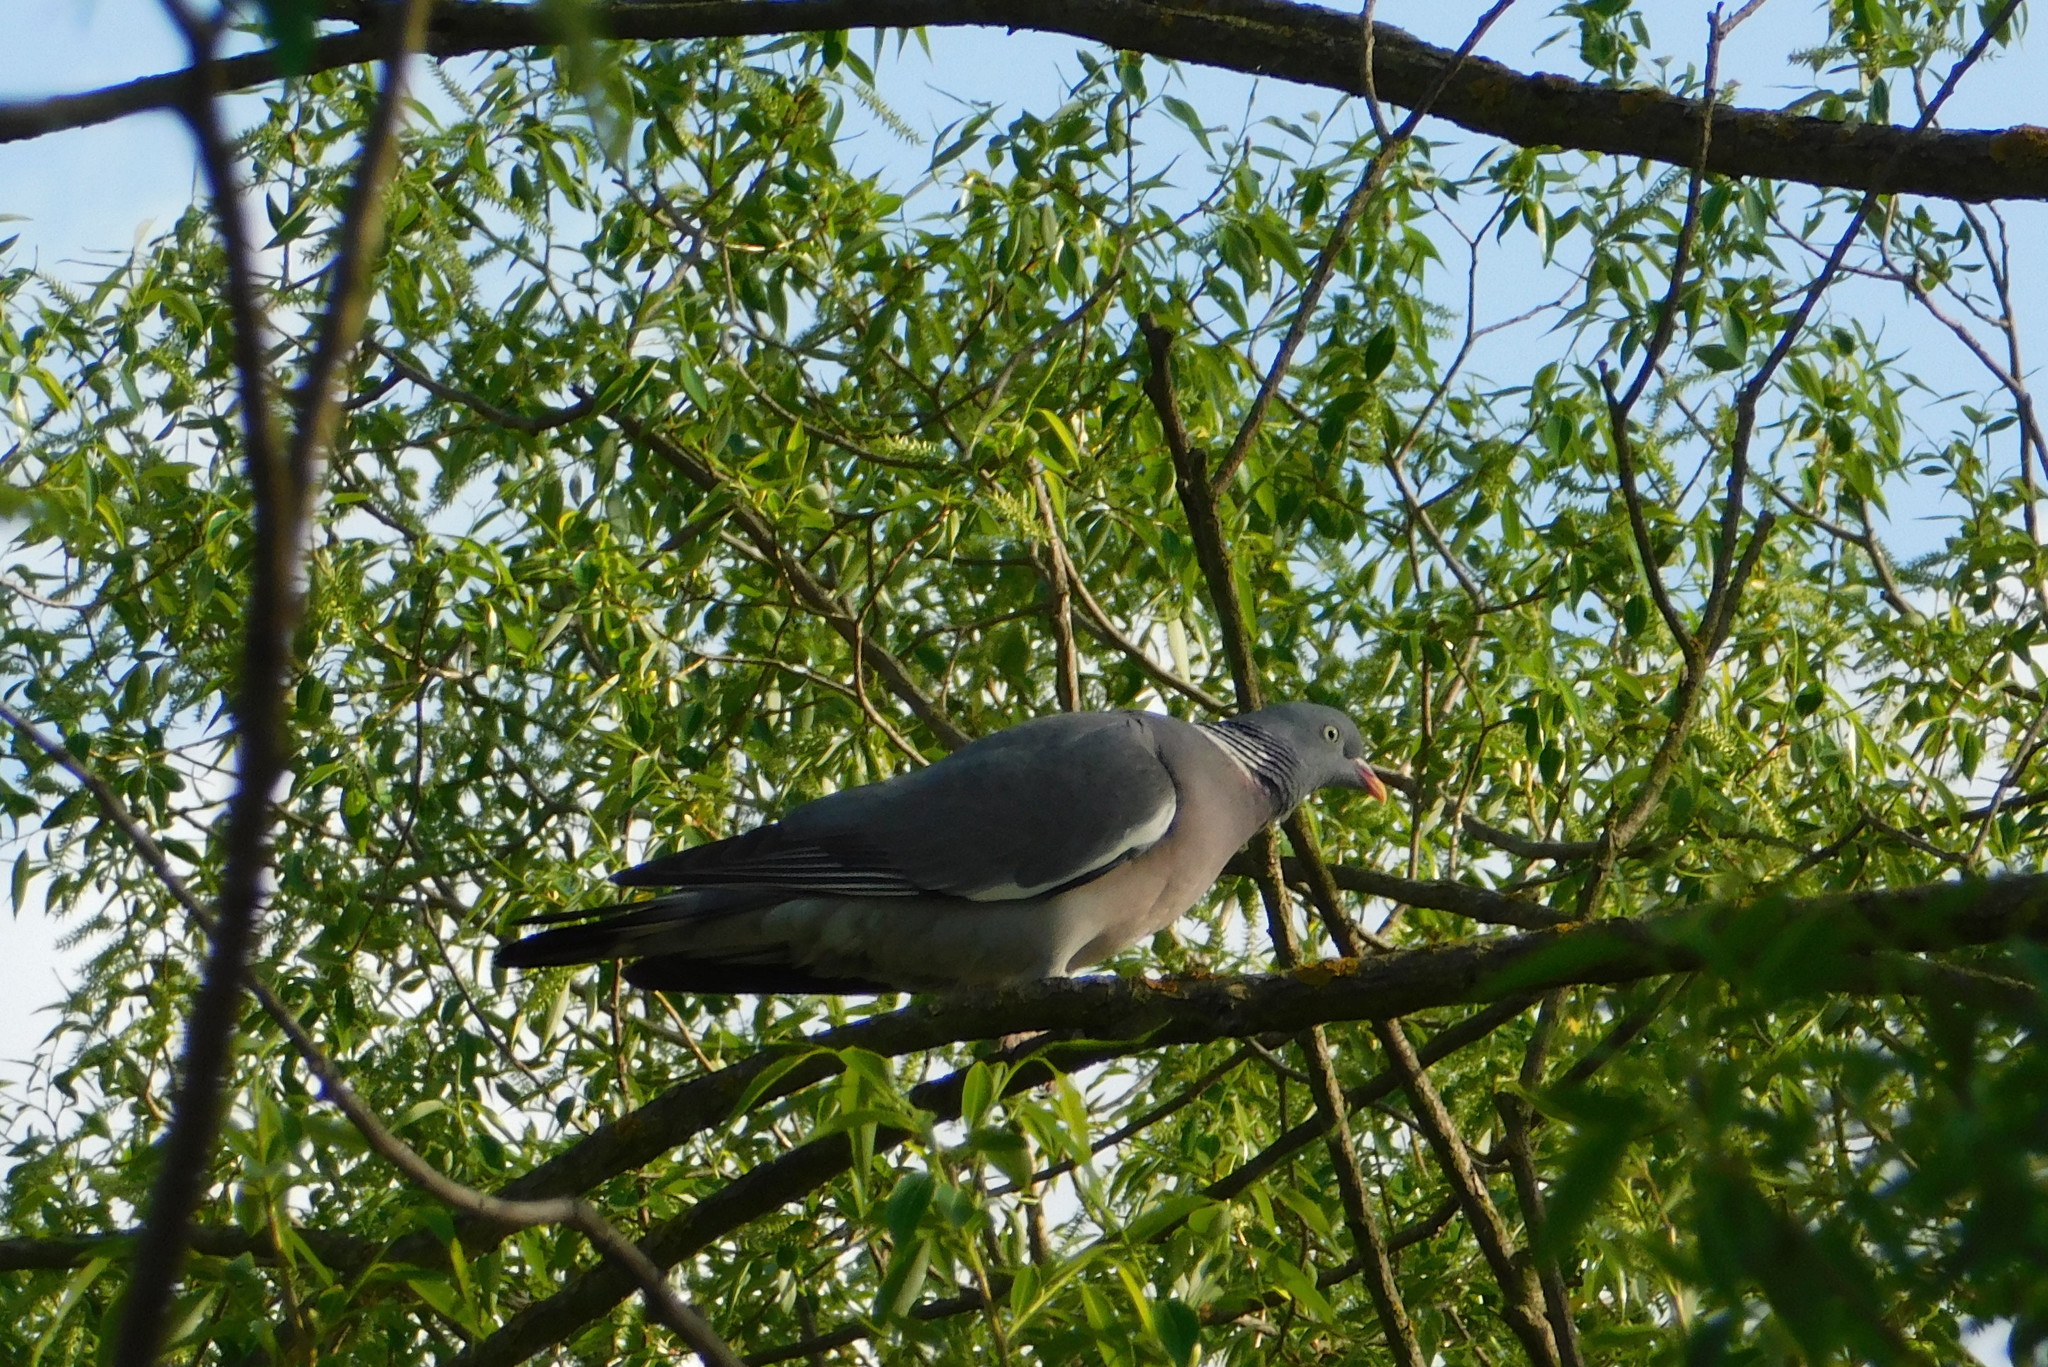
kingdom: Animalia
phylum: Chordata
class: Aves
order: Columbiformes
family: Columbidae
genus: Columba
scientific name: Columba palumbus
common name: Common wood pigeon
